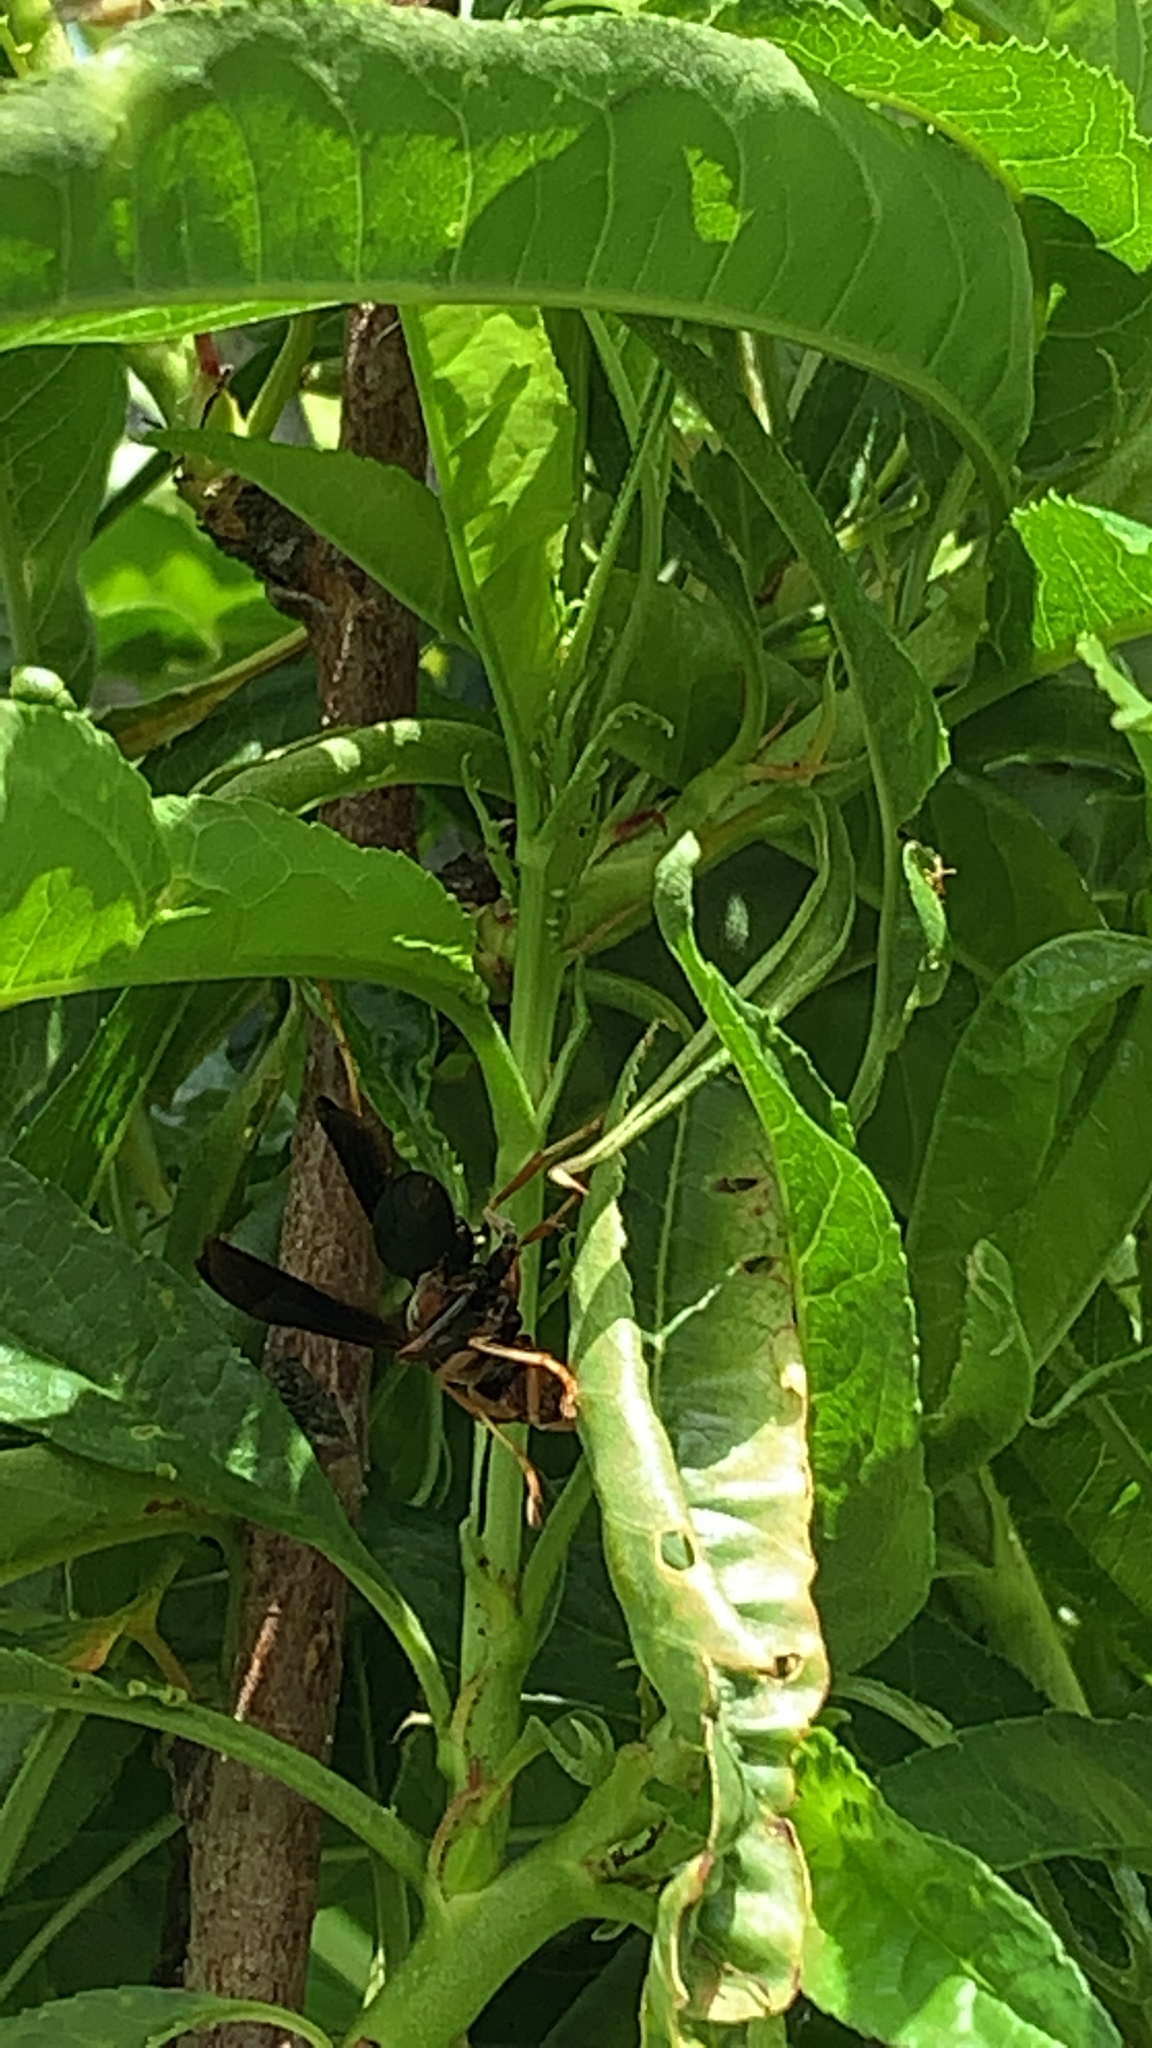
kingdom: Animalia
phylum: Arthropoda
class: Insecta
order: Hymenoptera
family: Eumenidae
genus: Polistes
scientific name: Polistes metricus
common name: Metric paper wasp
